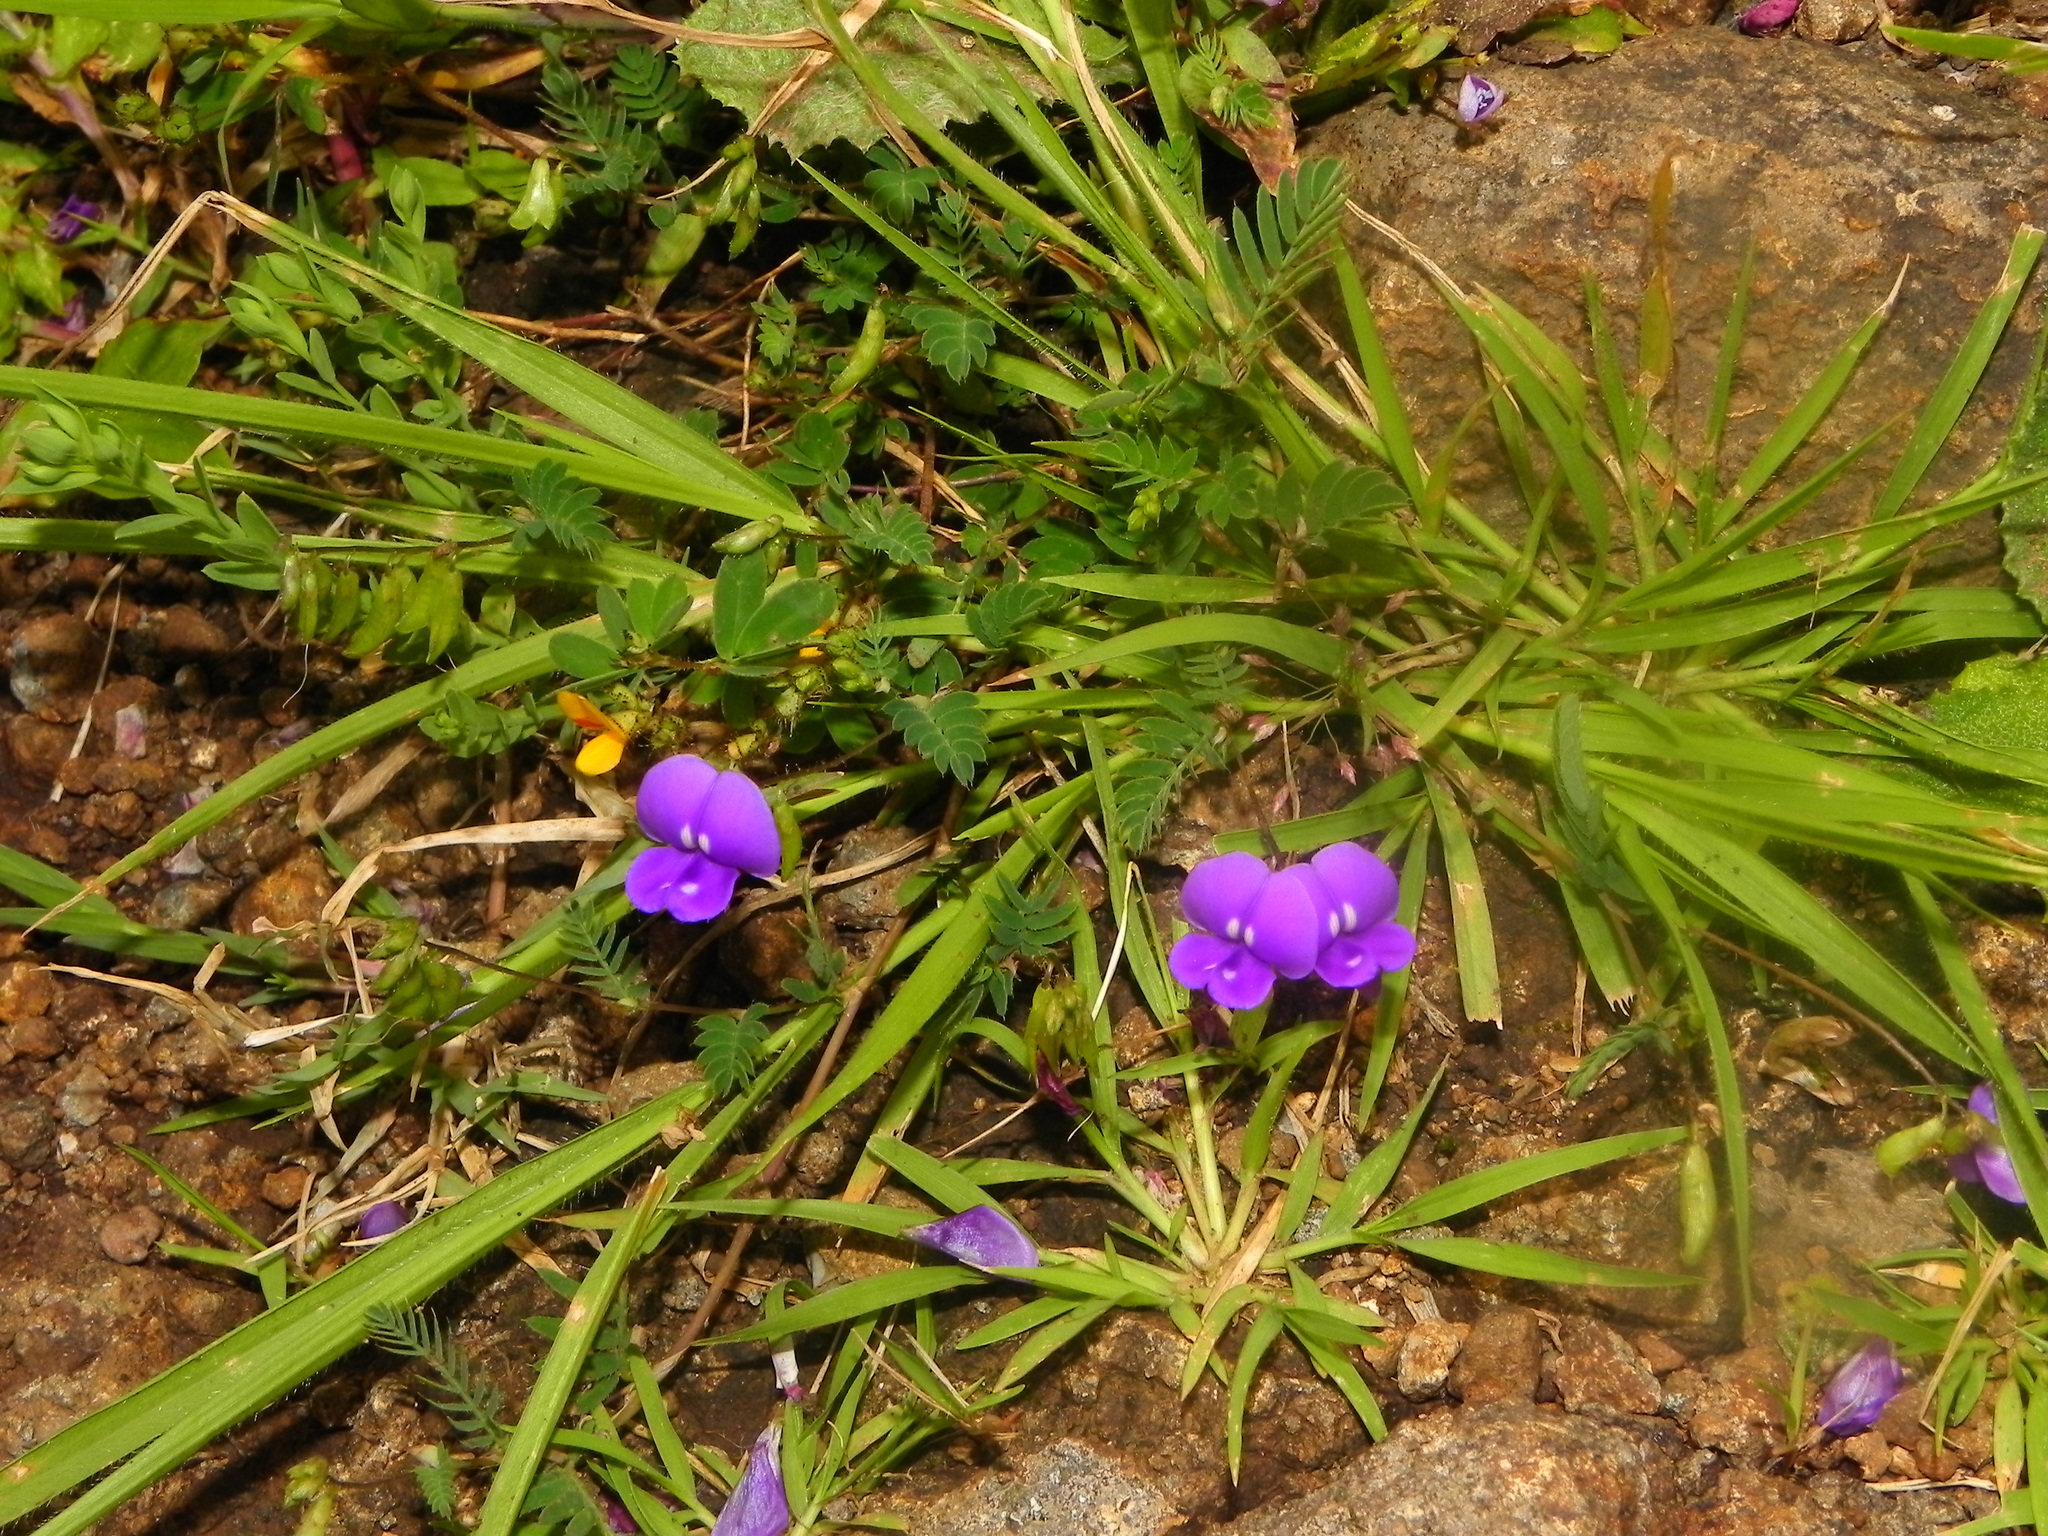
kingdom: Plantae
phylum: Tracheophyta
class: Magnoliopsida
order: Fabales
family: Fabaceae
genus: Smithia
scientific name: Smithia purpurea
